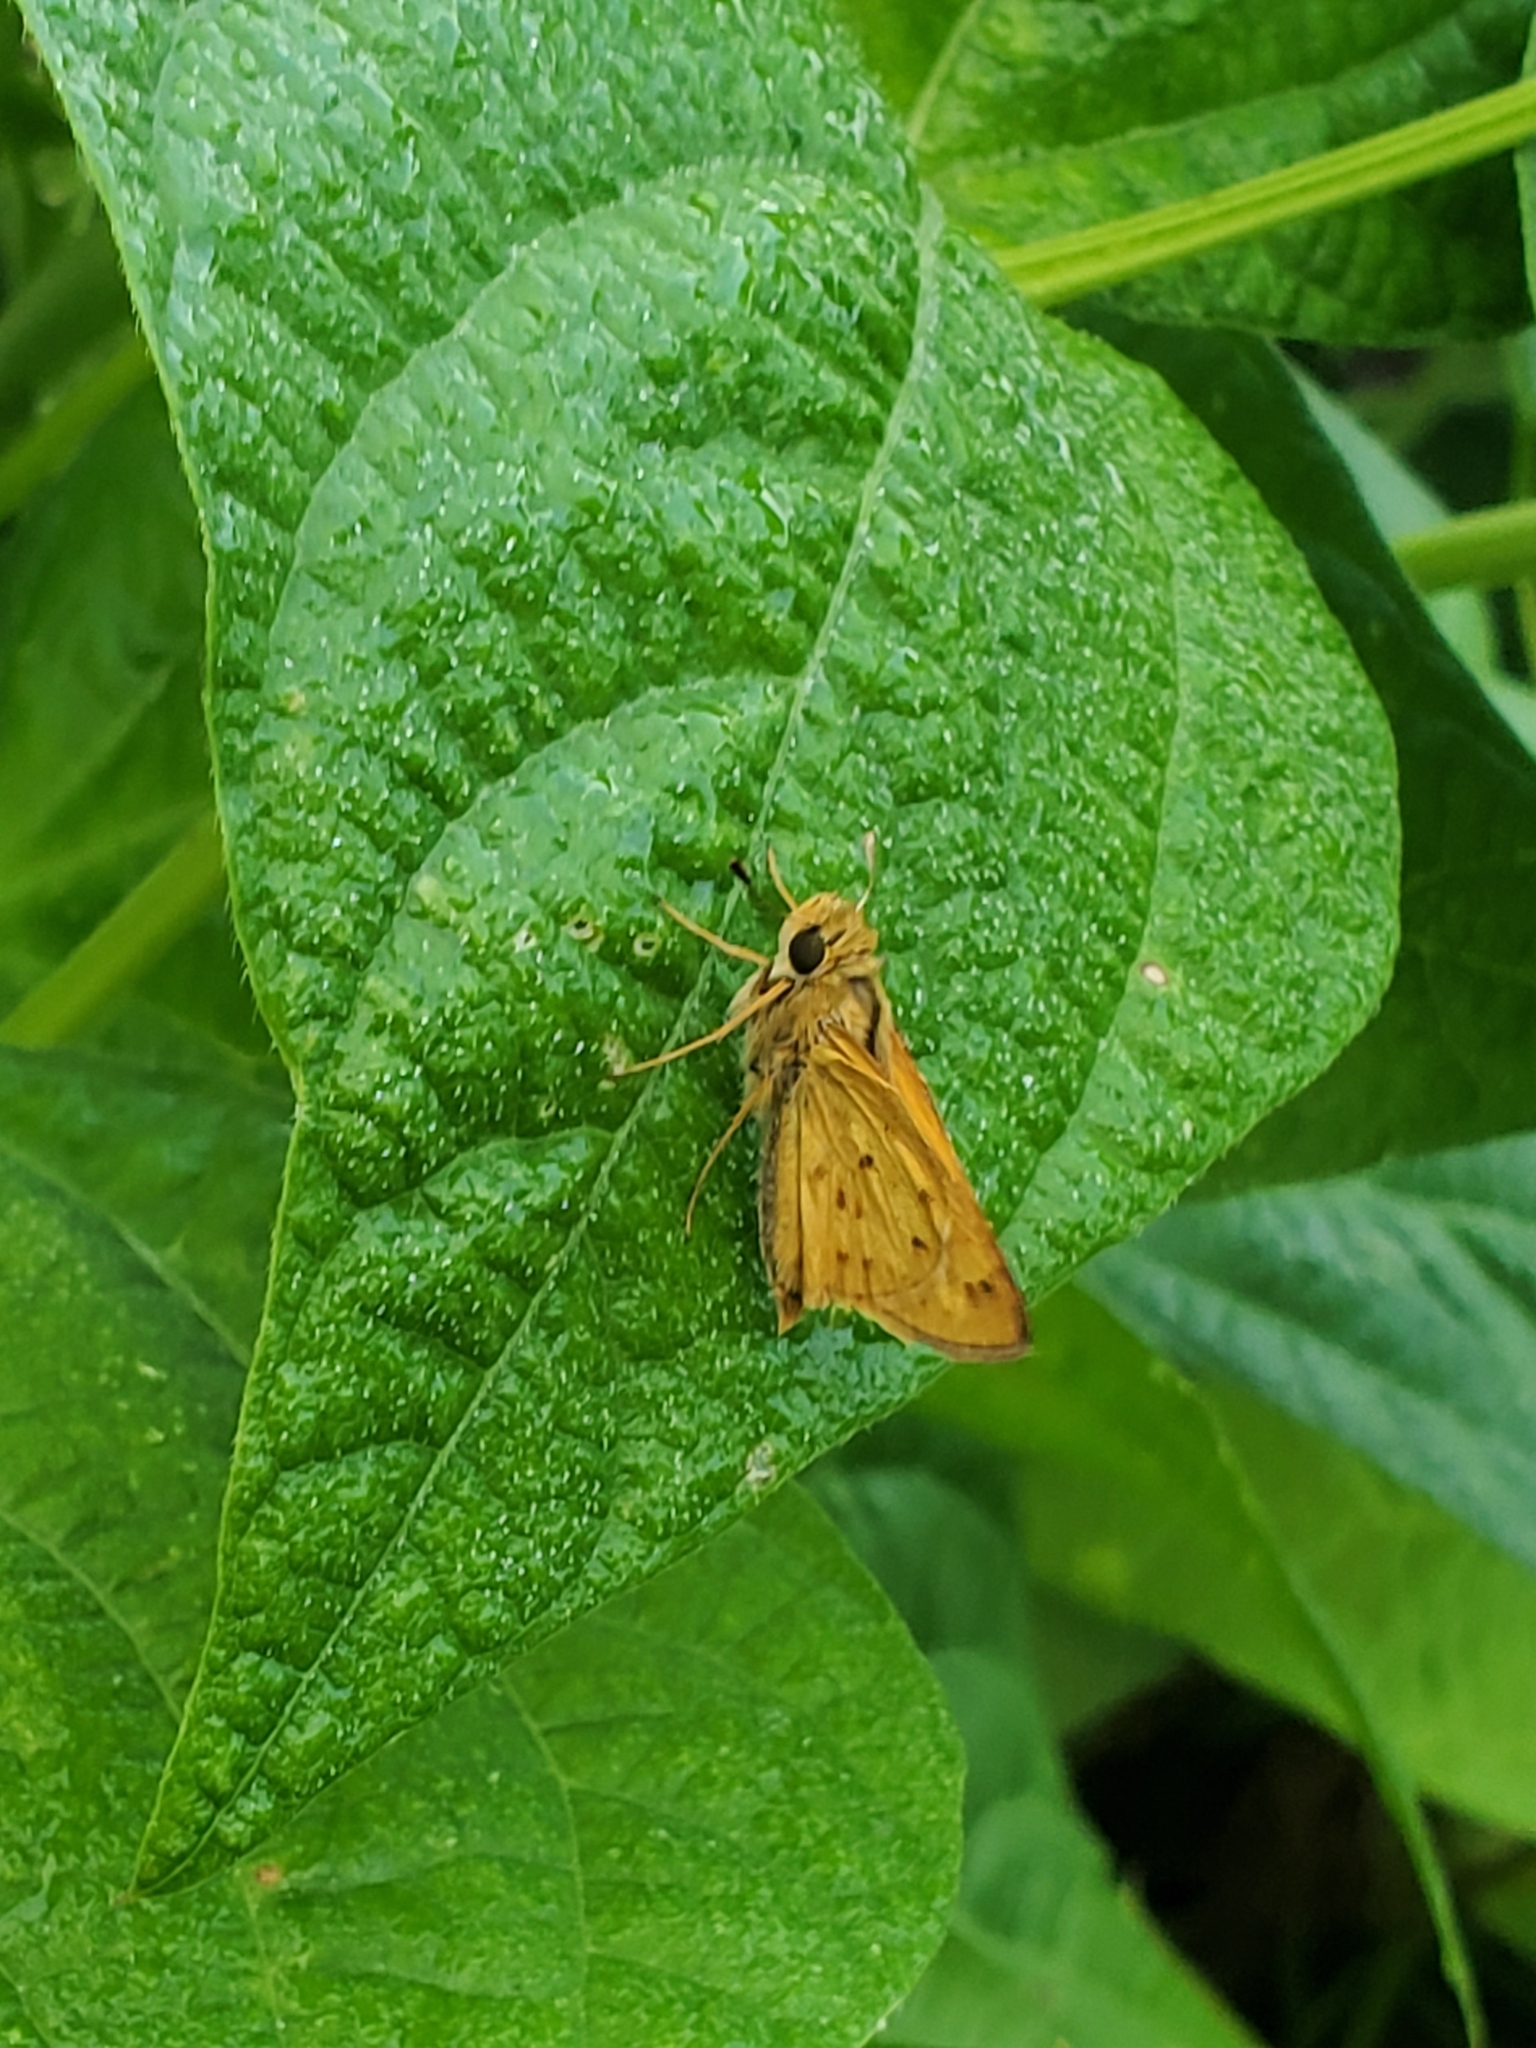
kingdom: Animalia
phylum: Arthropoda
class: Insecta
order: Lepidoptera
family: Hesperiidae
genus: Hylephila
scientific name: Hylephila phyleus
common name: Fiery skipper
